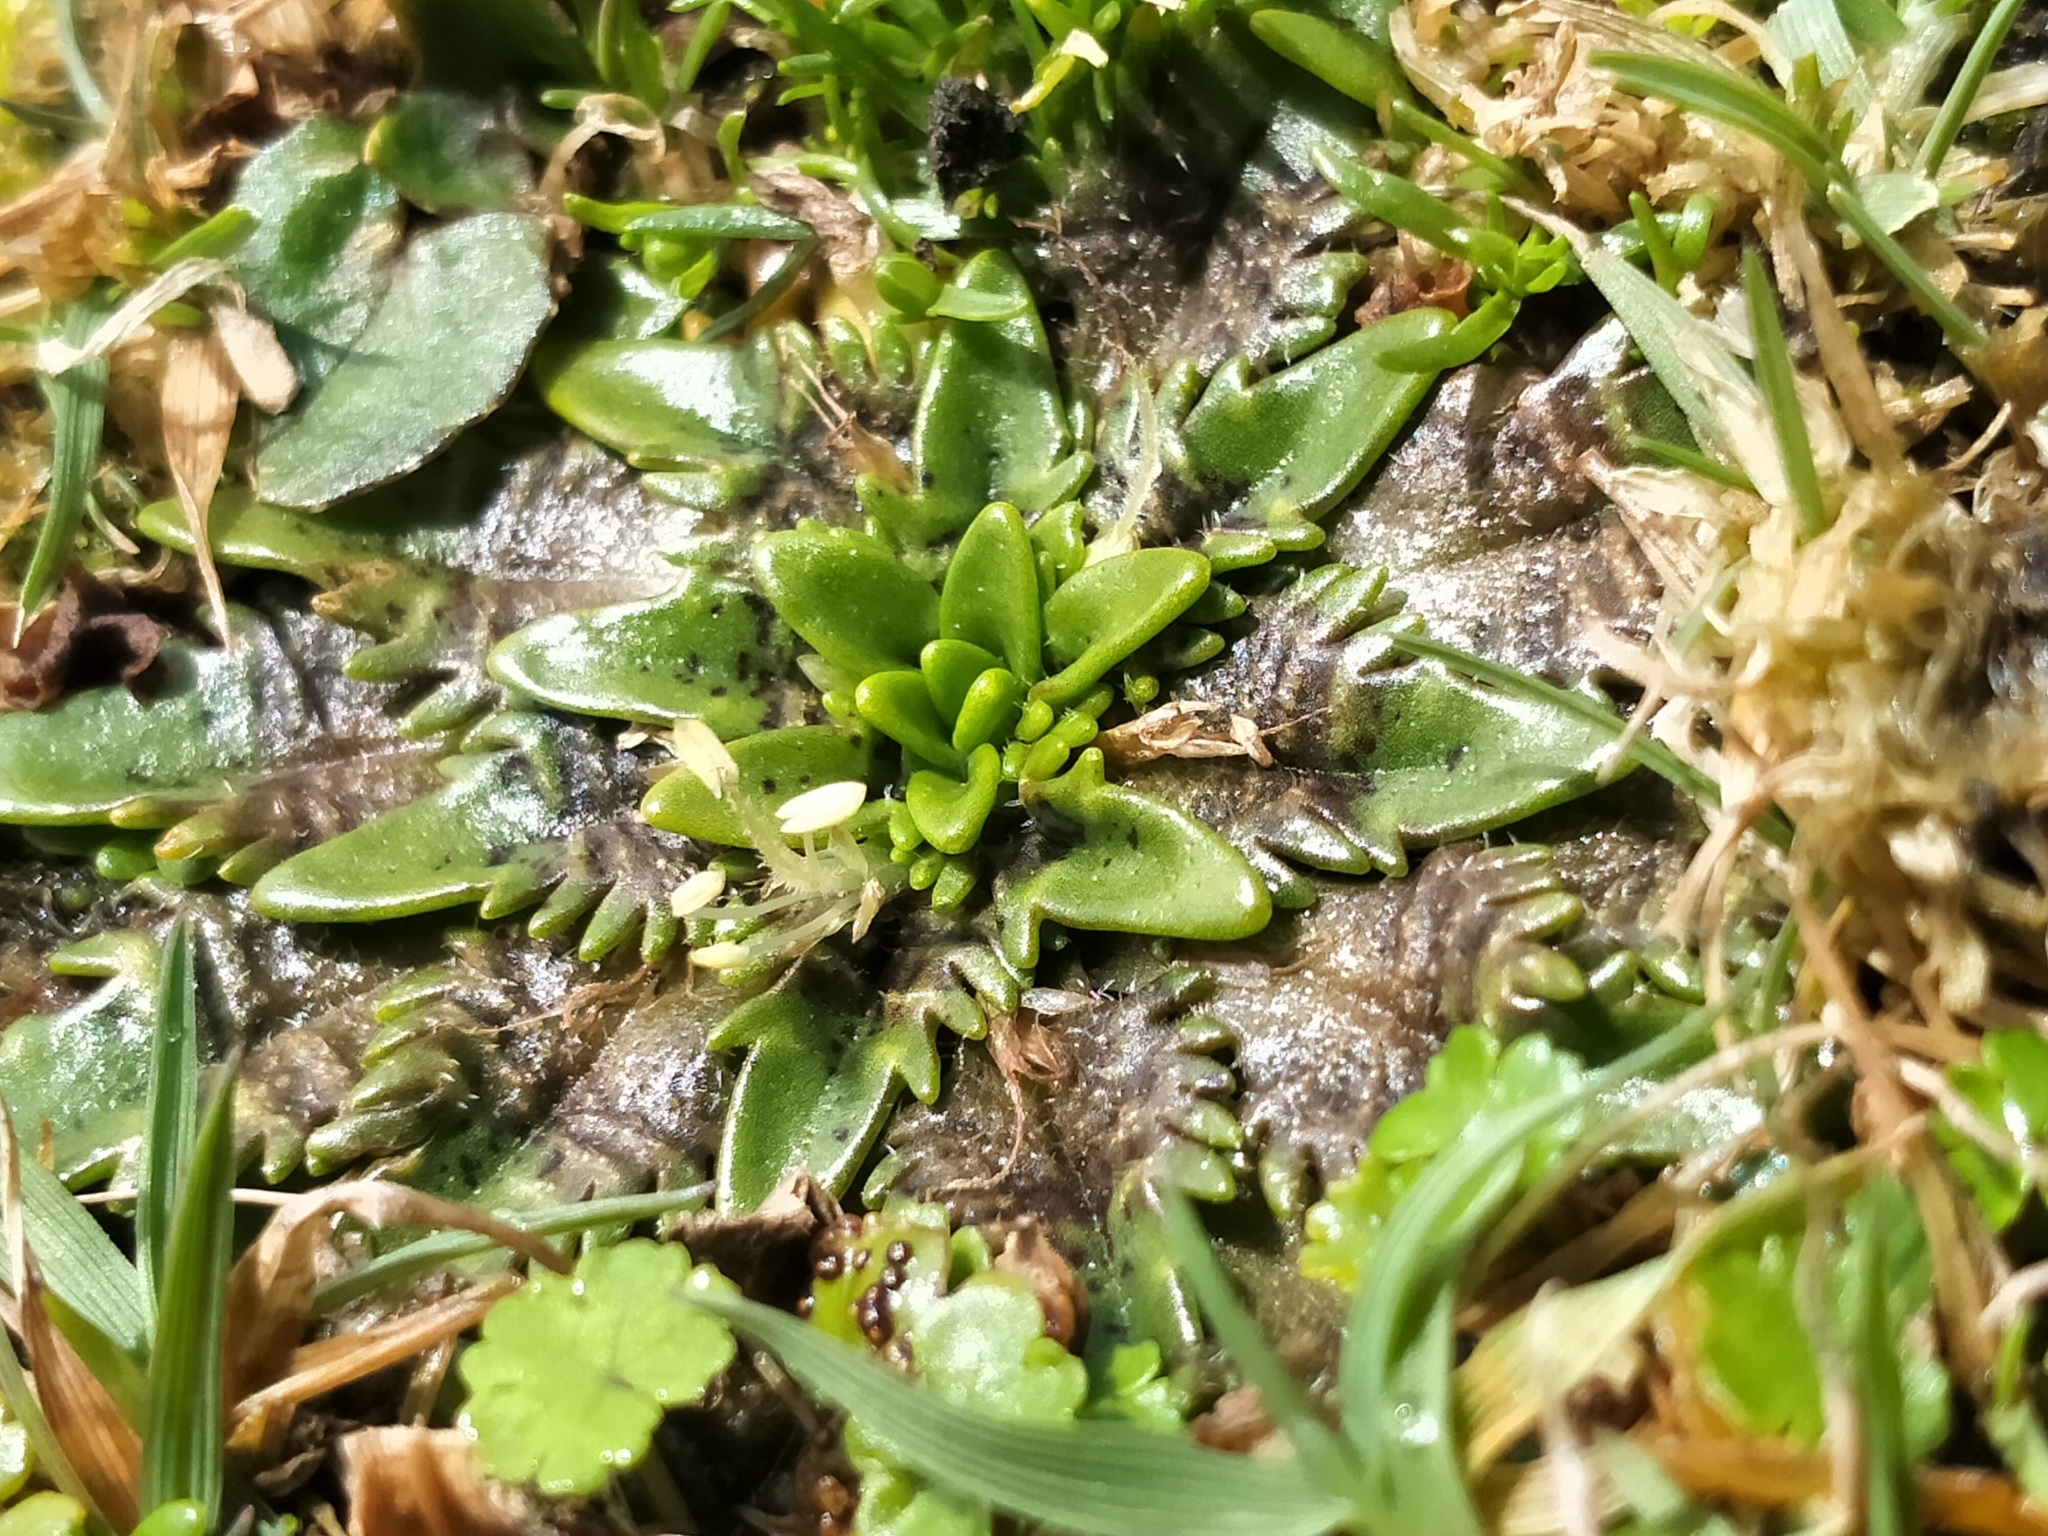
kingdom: Plantae
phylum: Tracheophyta
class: Magnoliopsida
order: Lamiales
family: Plantaginaceae
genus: Plantago
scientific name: Plantago triandra
